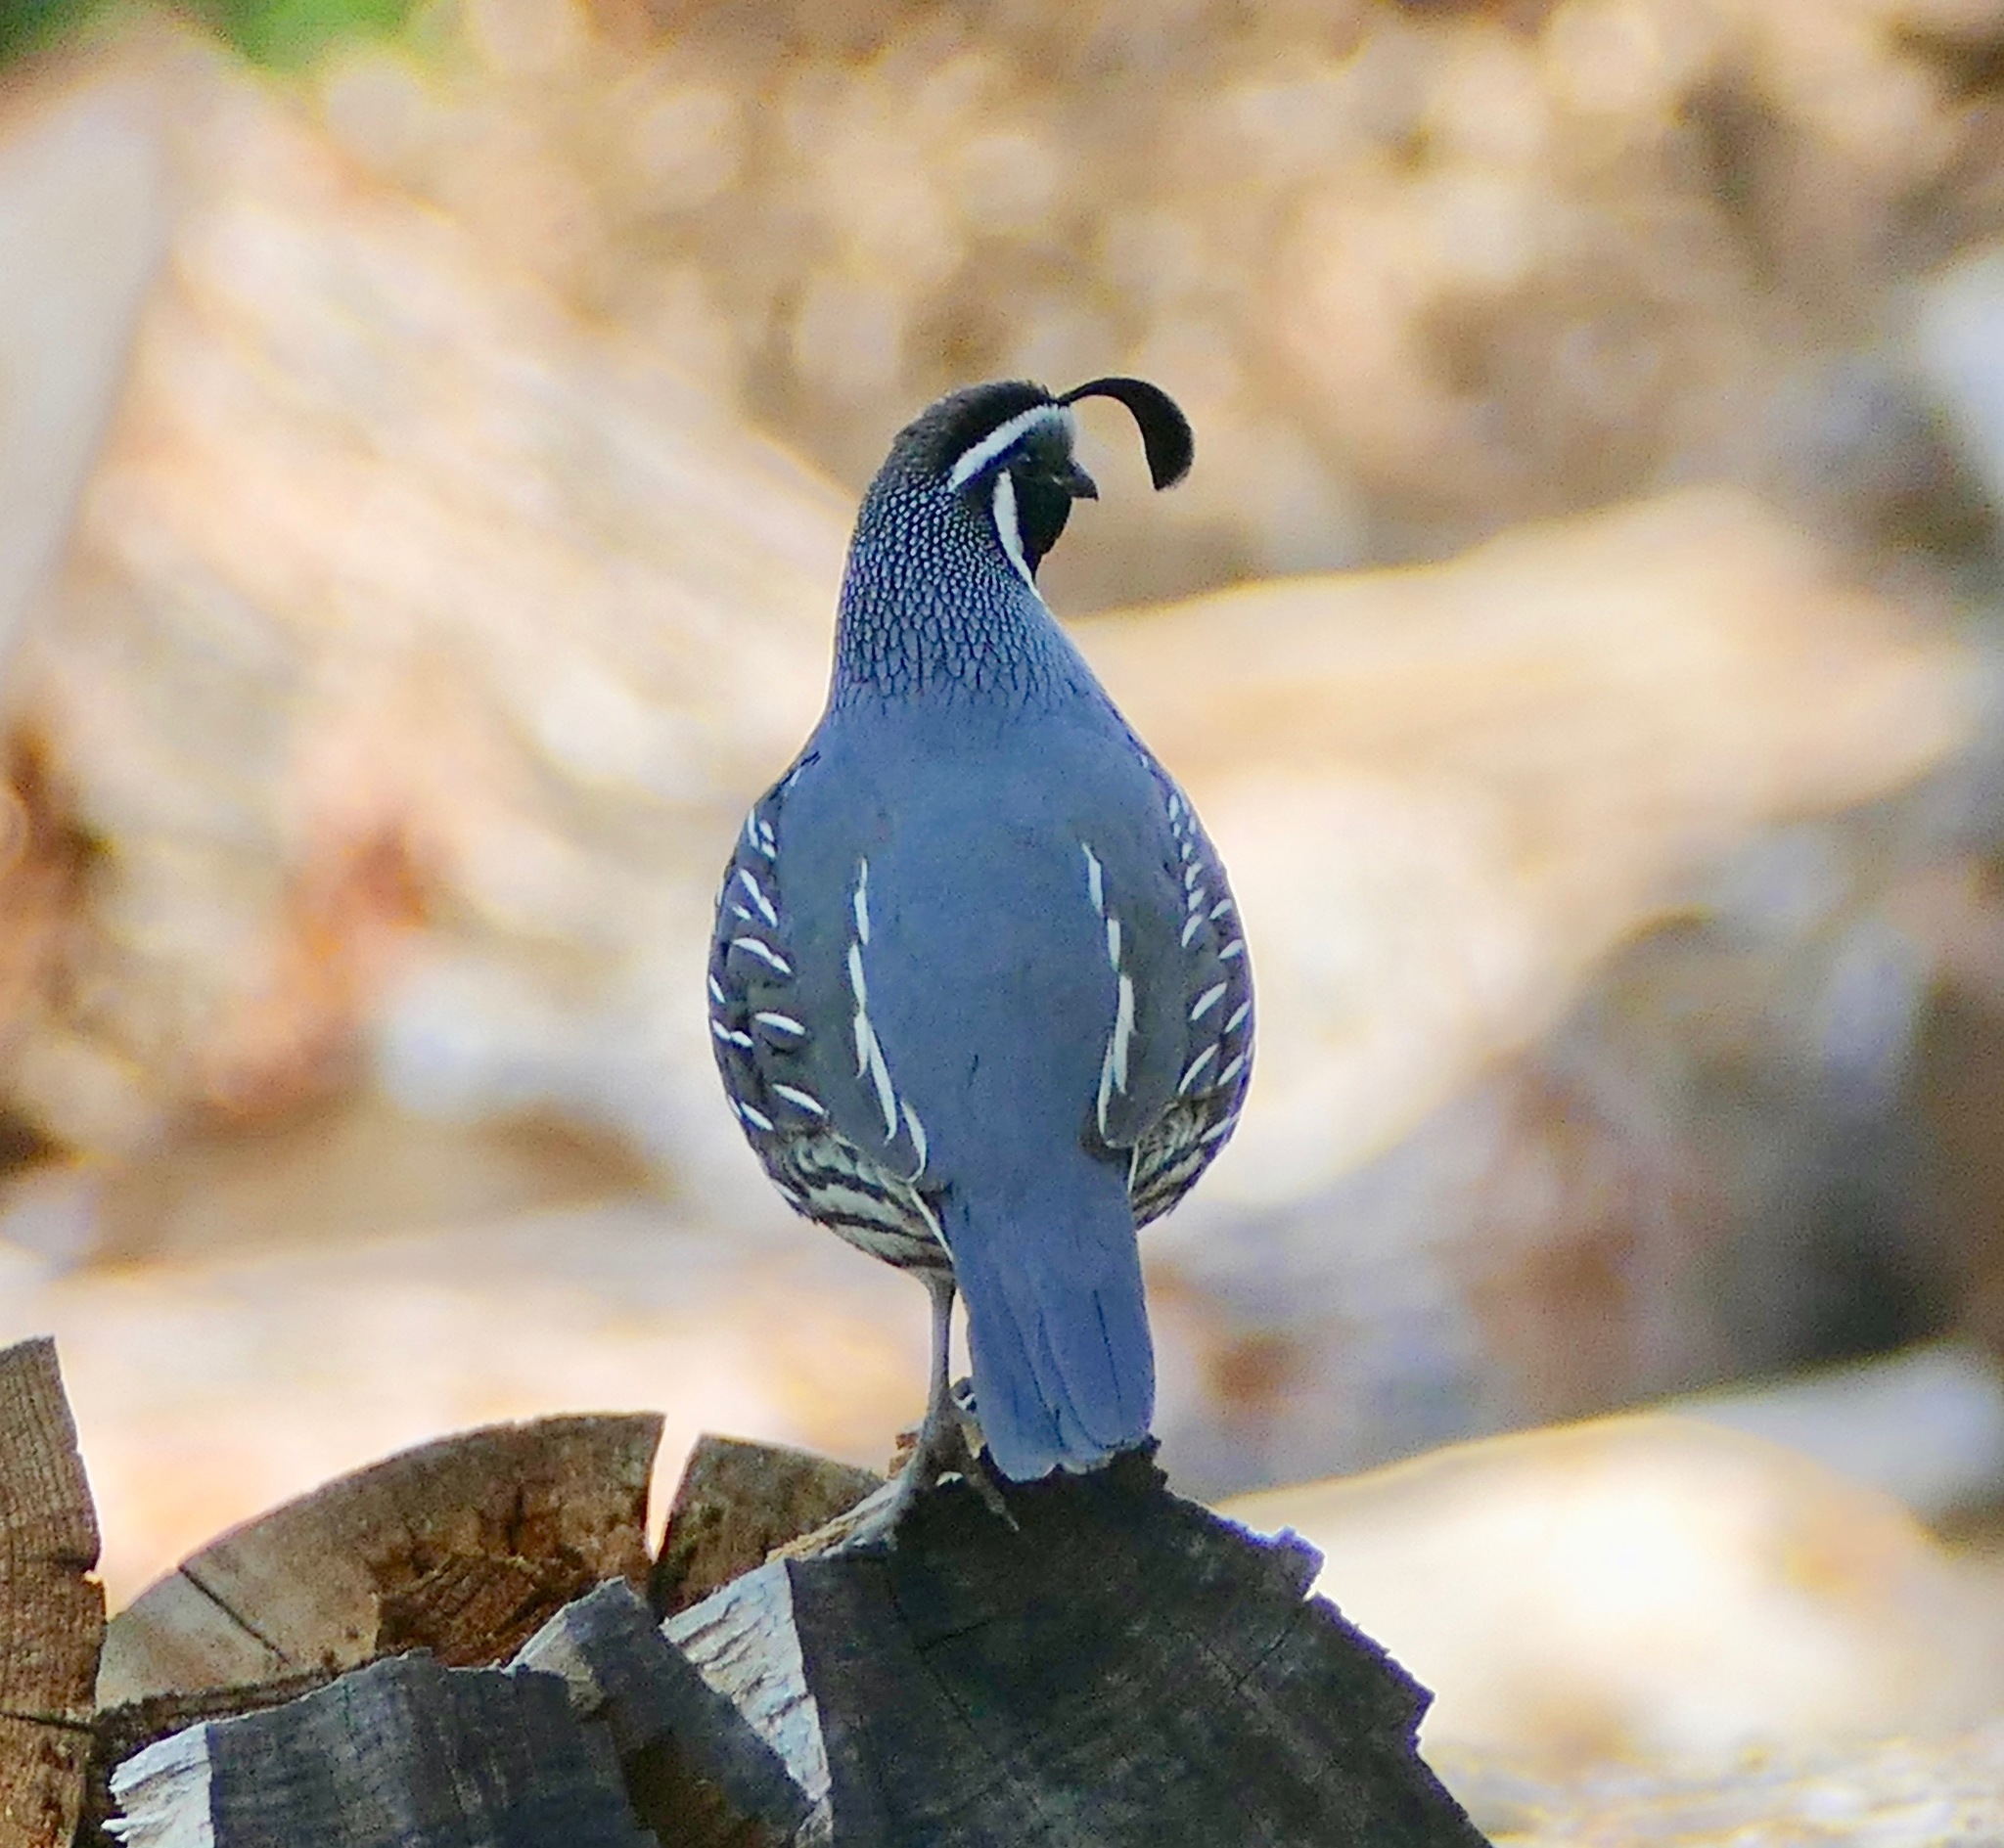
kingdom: Animalia
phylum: Chordata
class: Aves
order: Galliformes
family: Odontophoridae
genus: Callipepla
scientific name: Callipepla californica
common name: California quail
